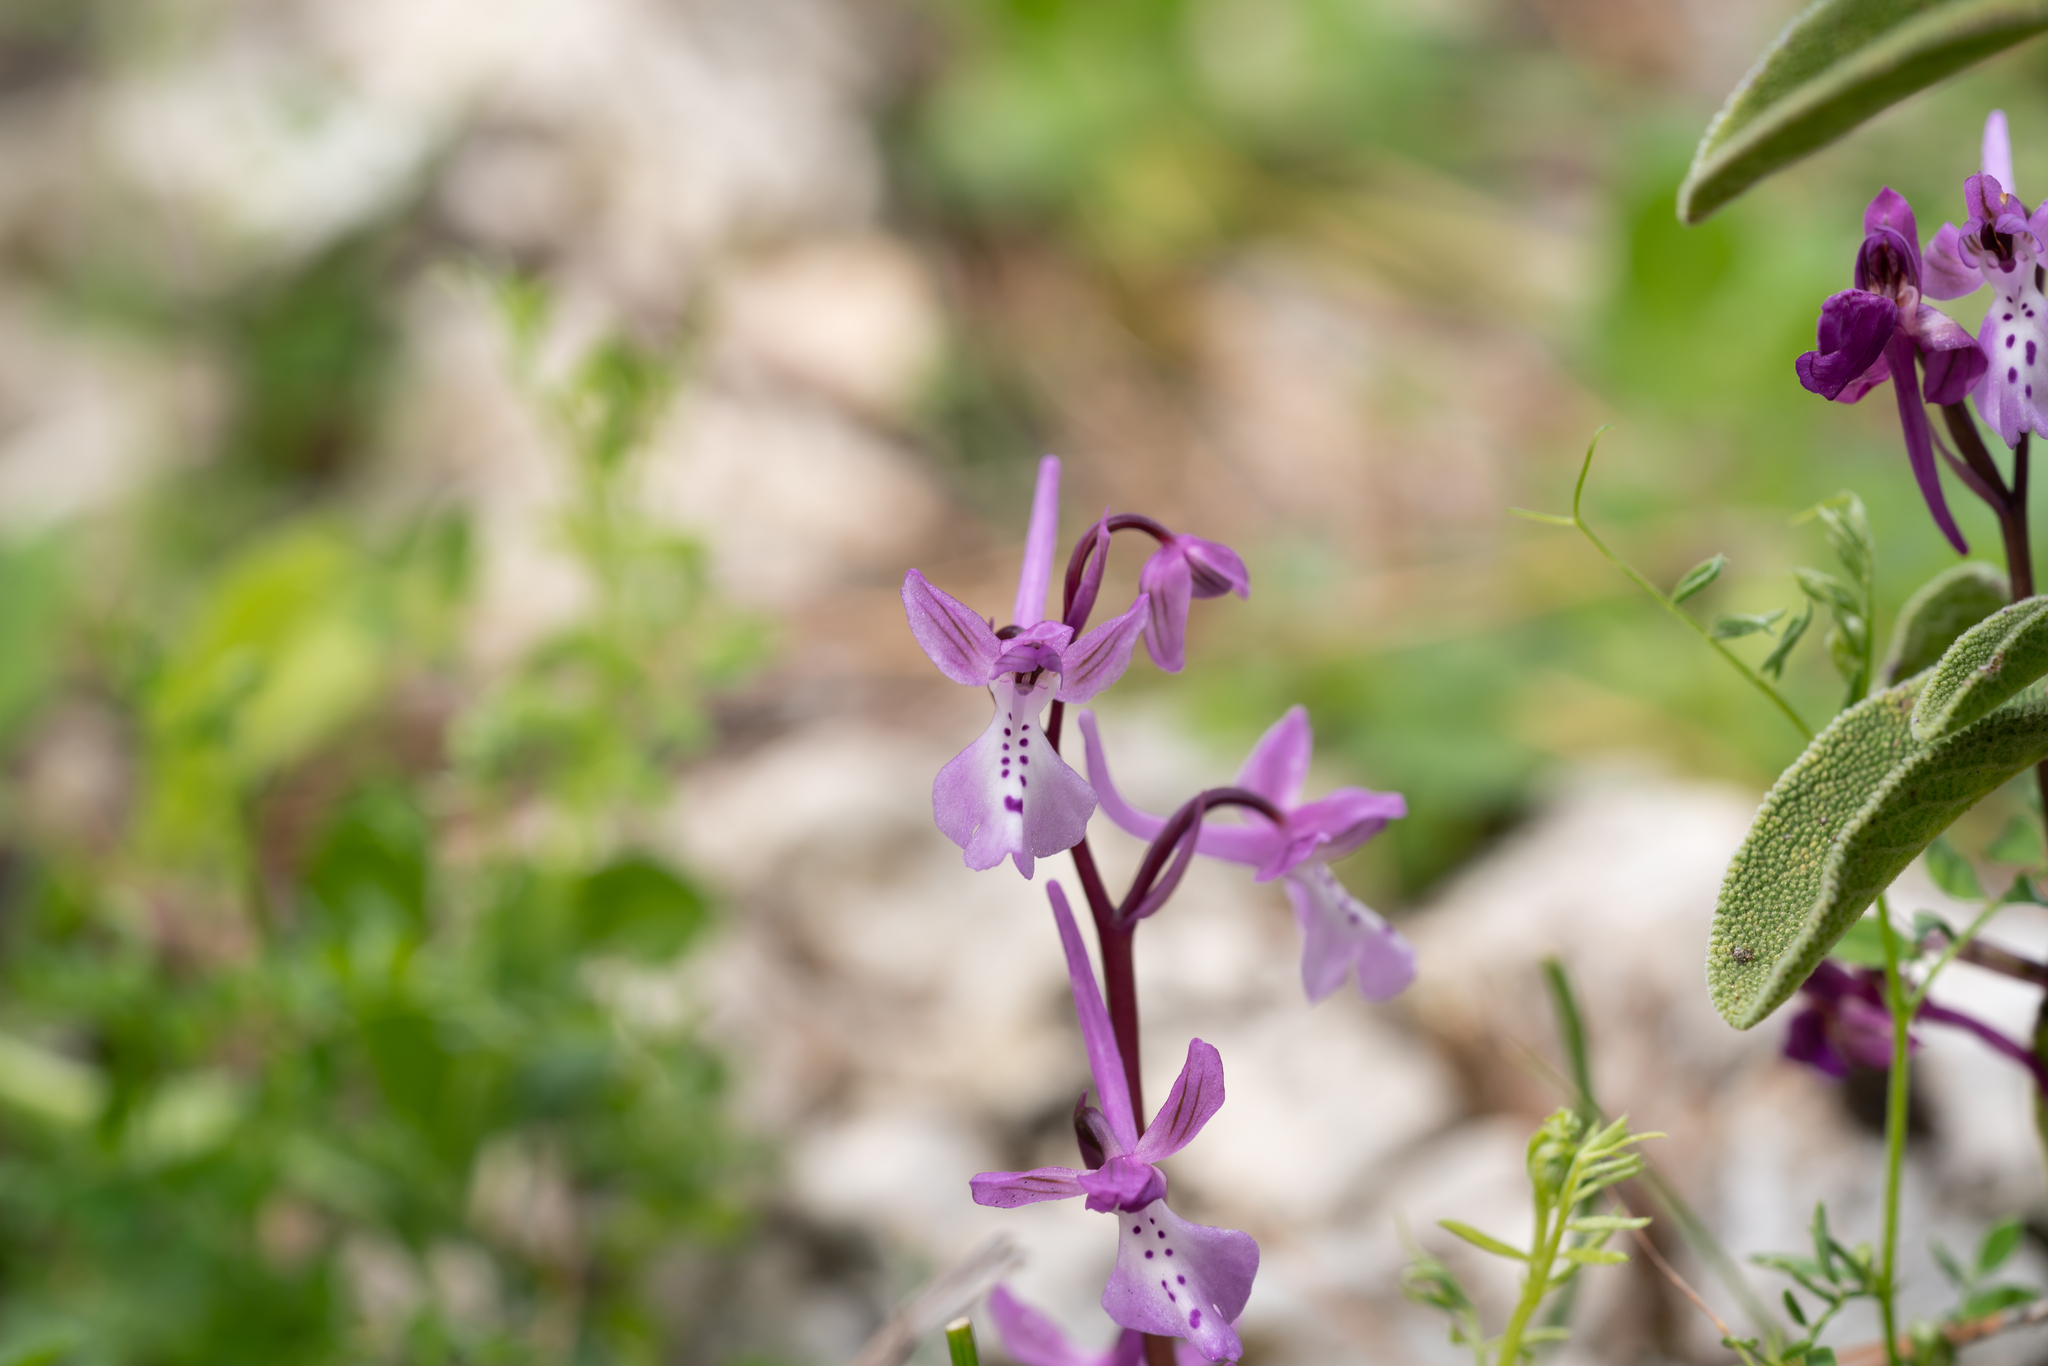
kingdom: Plantae
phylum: Tracheophyta
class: Liliopsida
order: Asparagales
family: Orchidaceae
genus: Orchis
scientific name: Orchis anatolica
